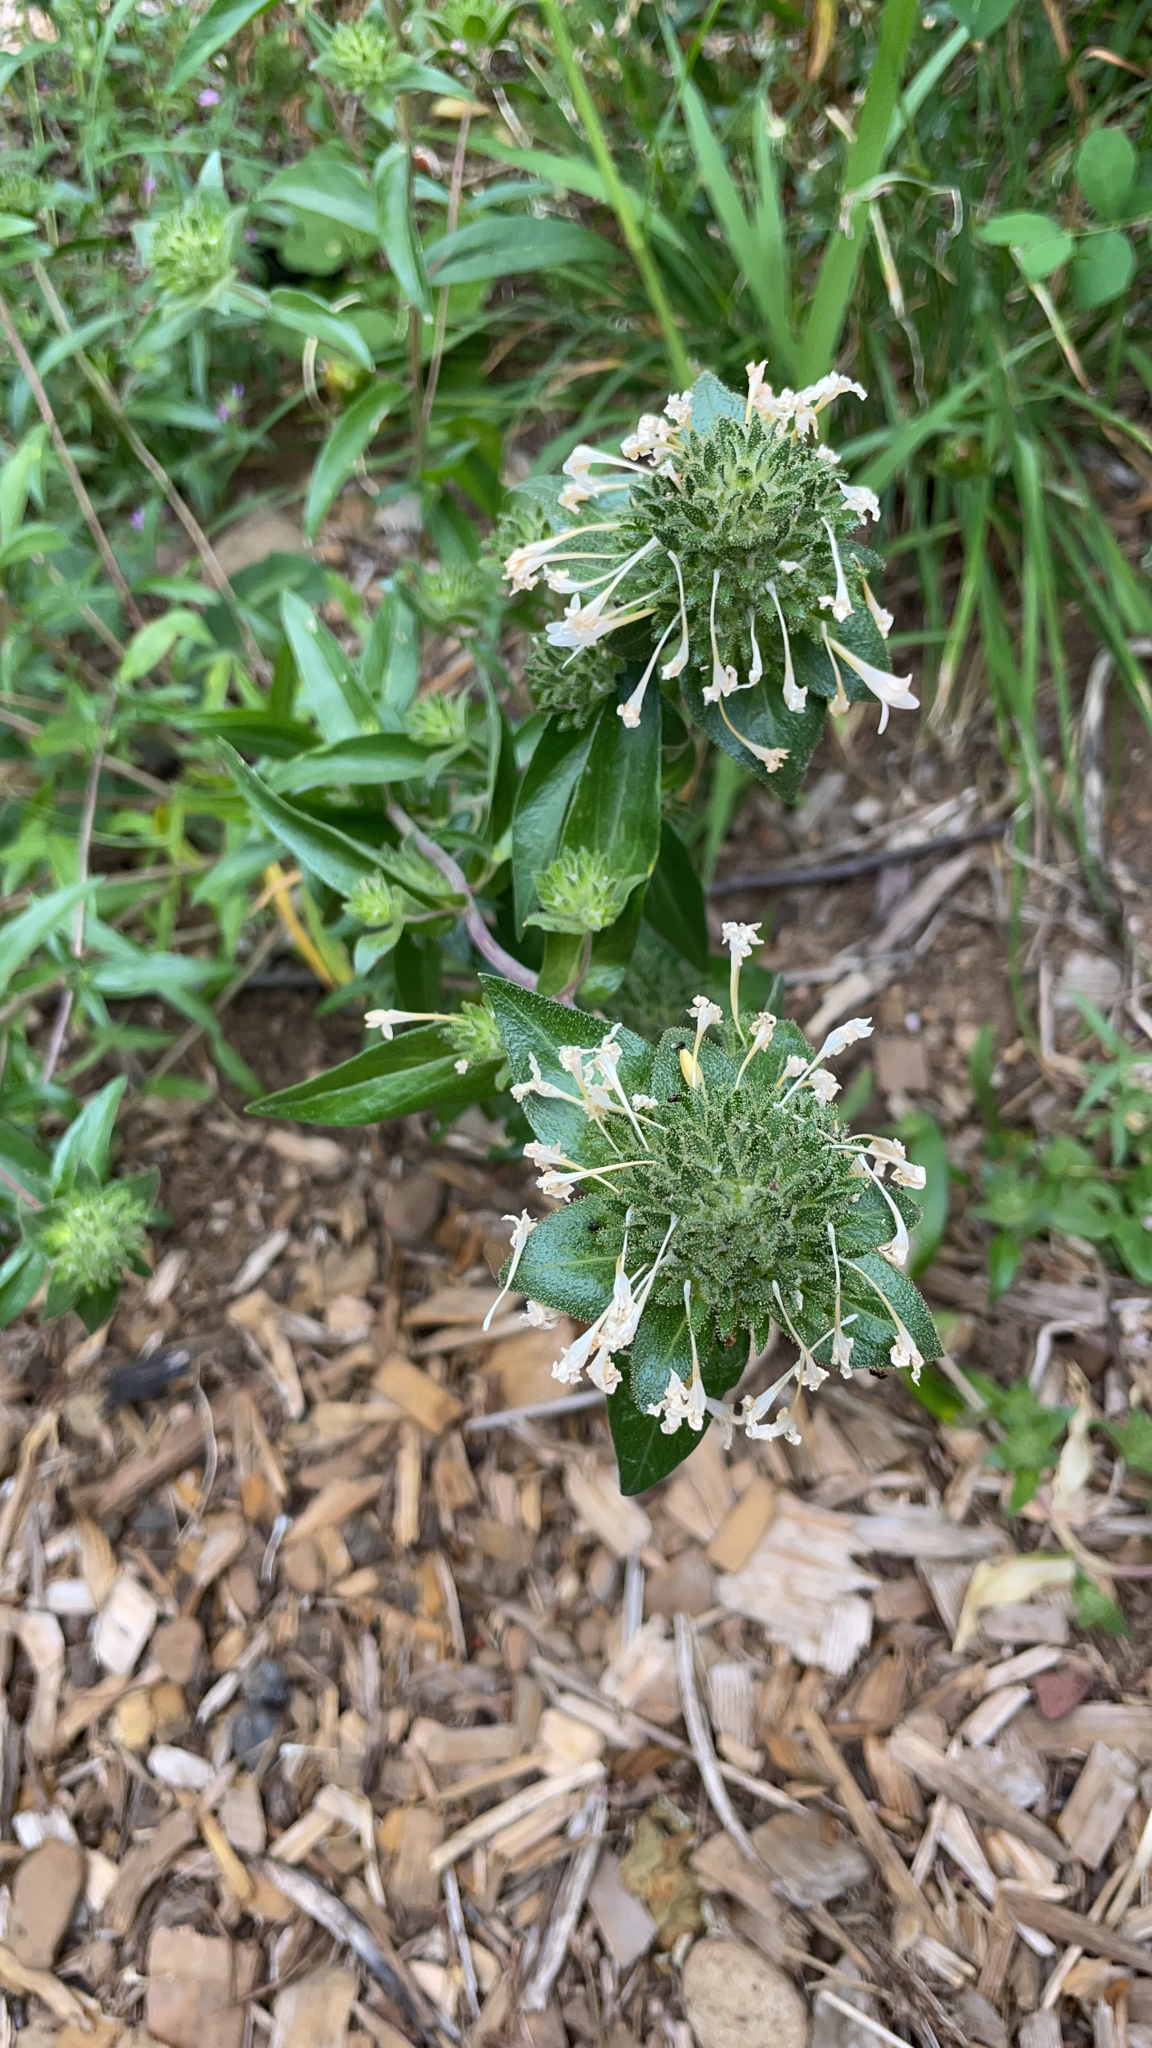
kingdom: Plantae
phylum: Tracheophyta
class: Magnoliopsida
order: Ericales
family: Polemoniaceae
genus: Collomia
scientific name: Collomia grandiflora
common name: California strawflower
